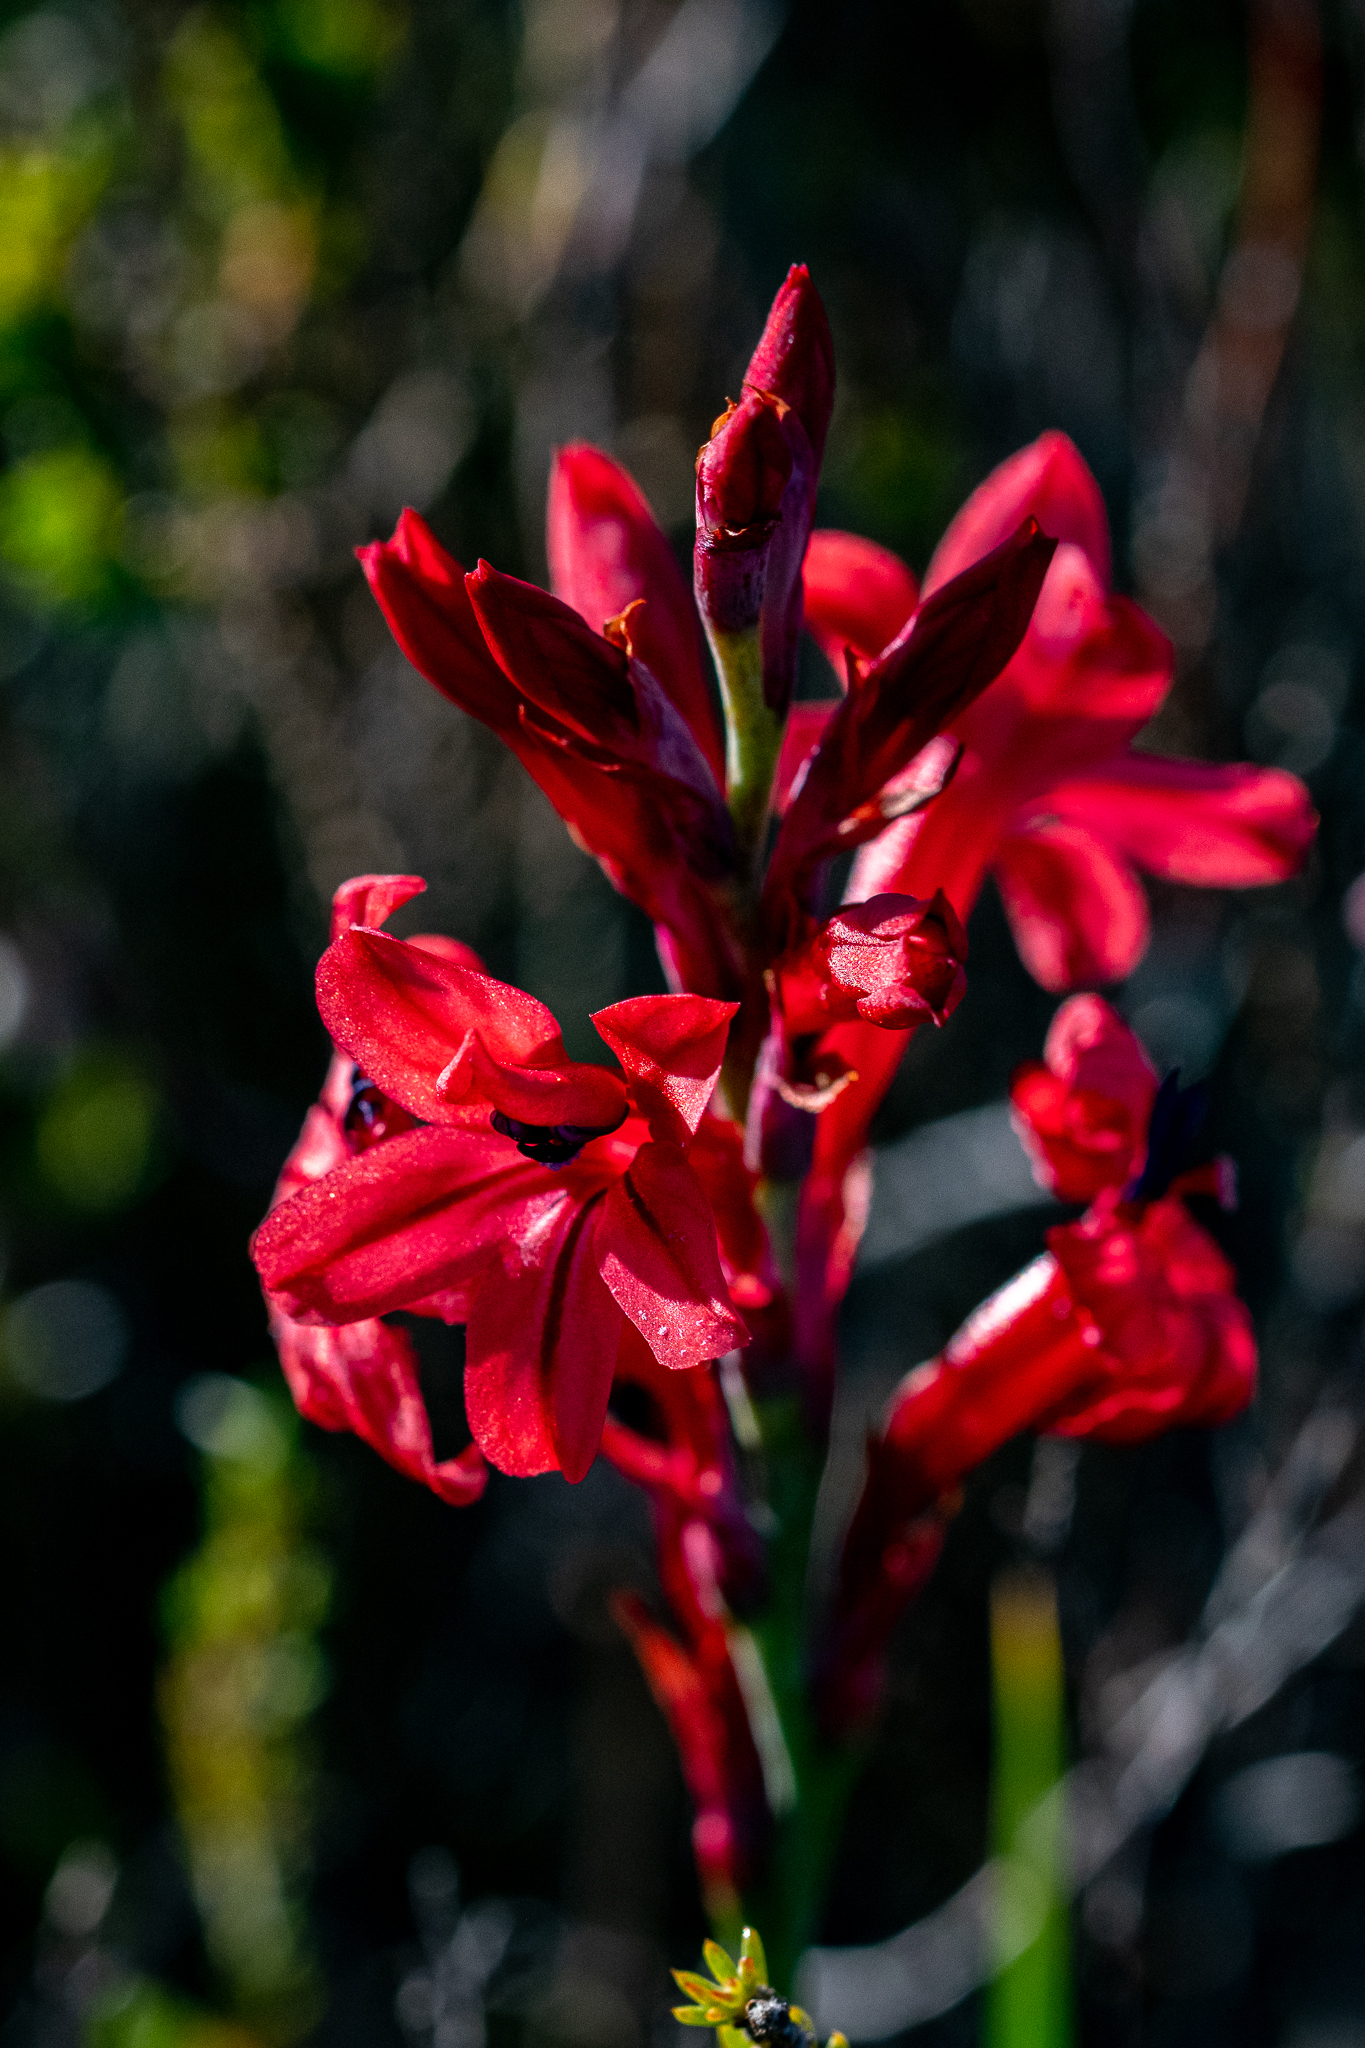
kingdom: Plantae
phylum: Tracheophyta
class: Liliopsida
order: Asparagales
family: Iridaceae
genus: Tritoniopsis
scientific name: Tritoniopsis pulchra
